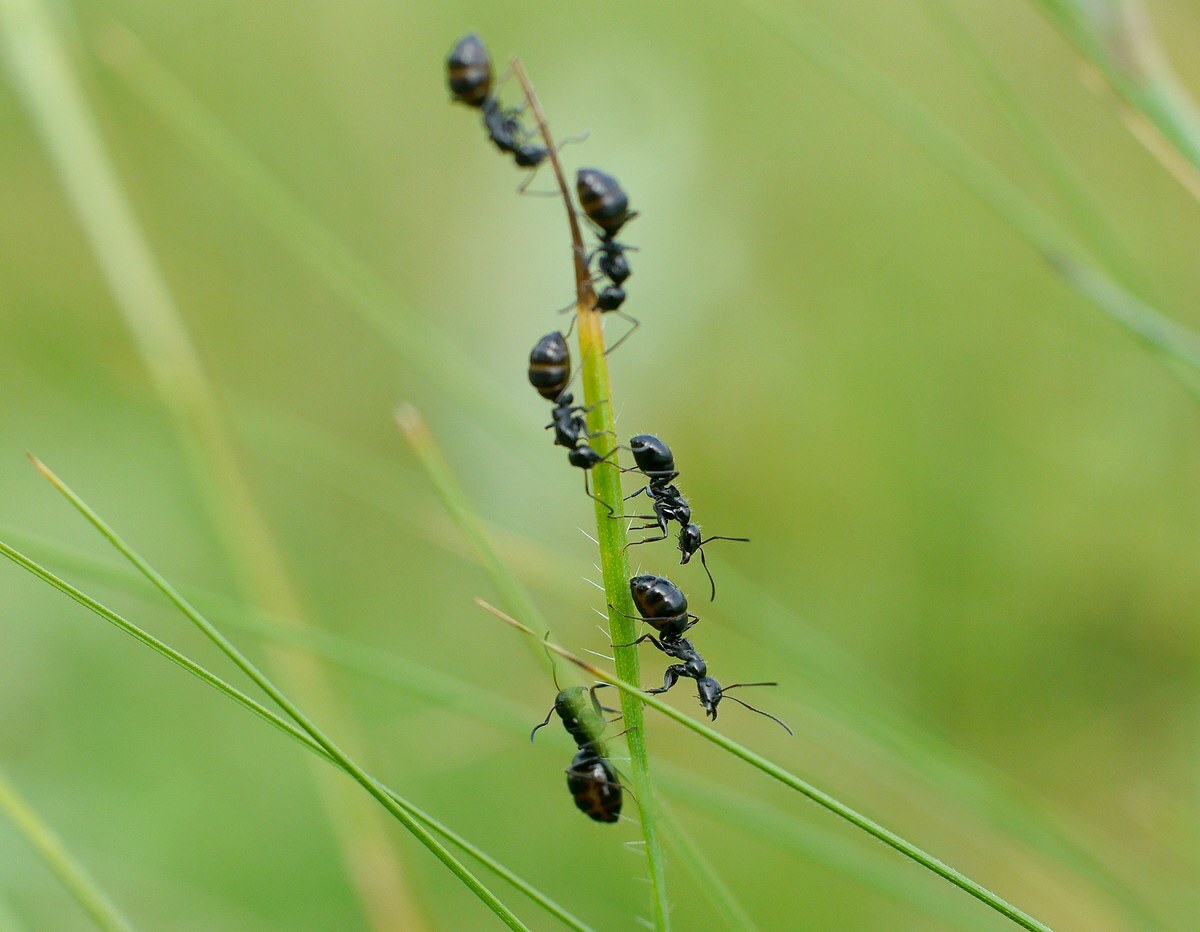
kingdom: Animalia
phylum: Arthropoda
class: Insecta
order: Hymenoptera
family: Formicidae
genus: Camponotus
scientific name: Camponotus
